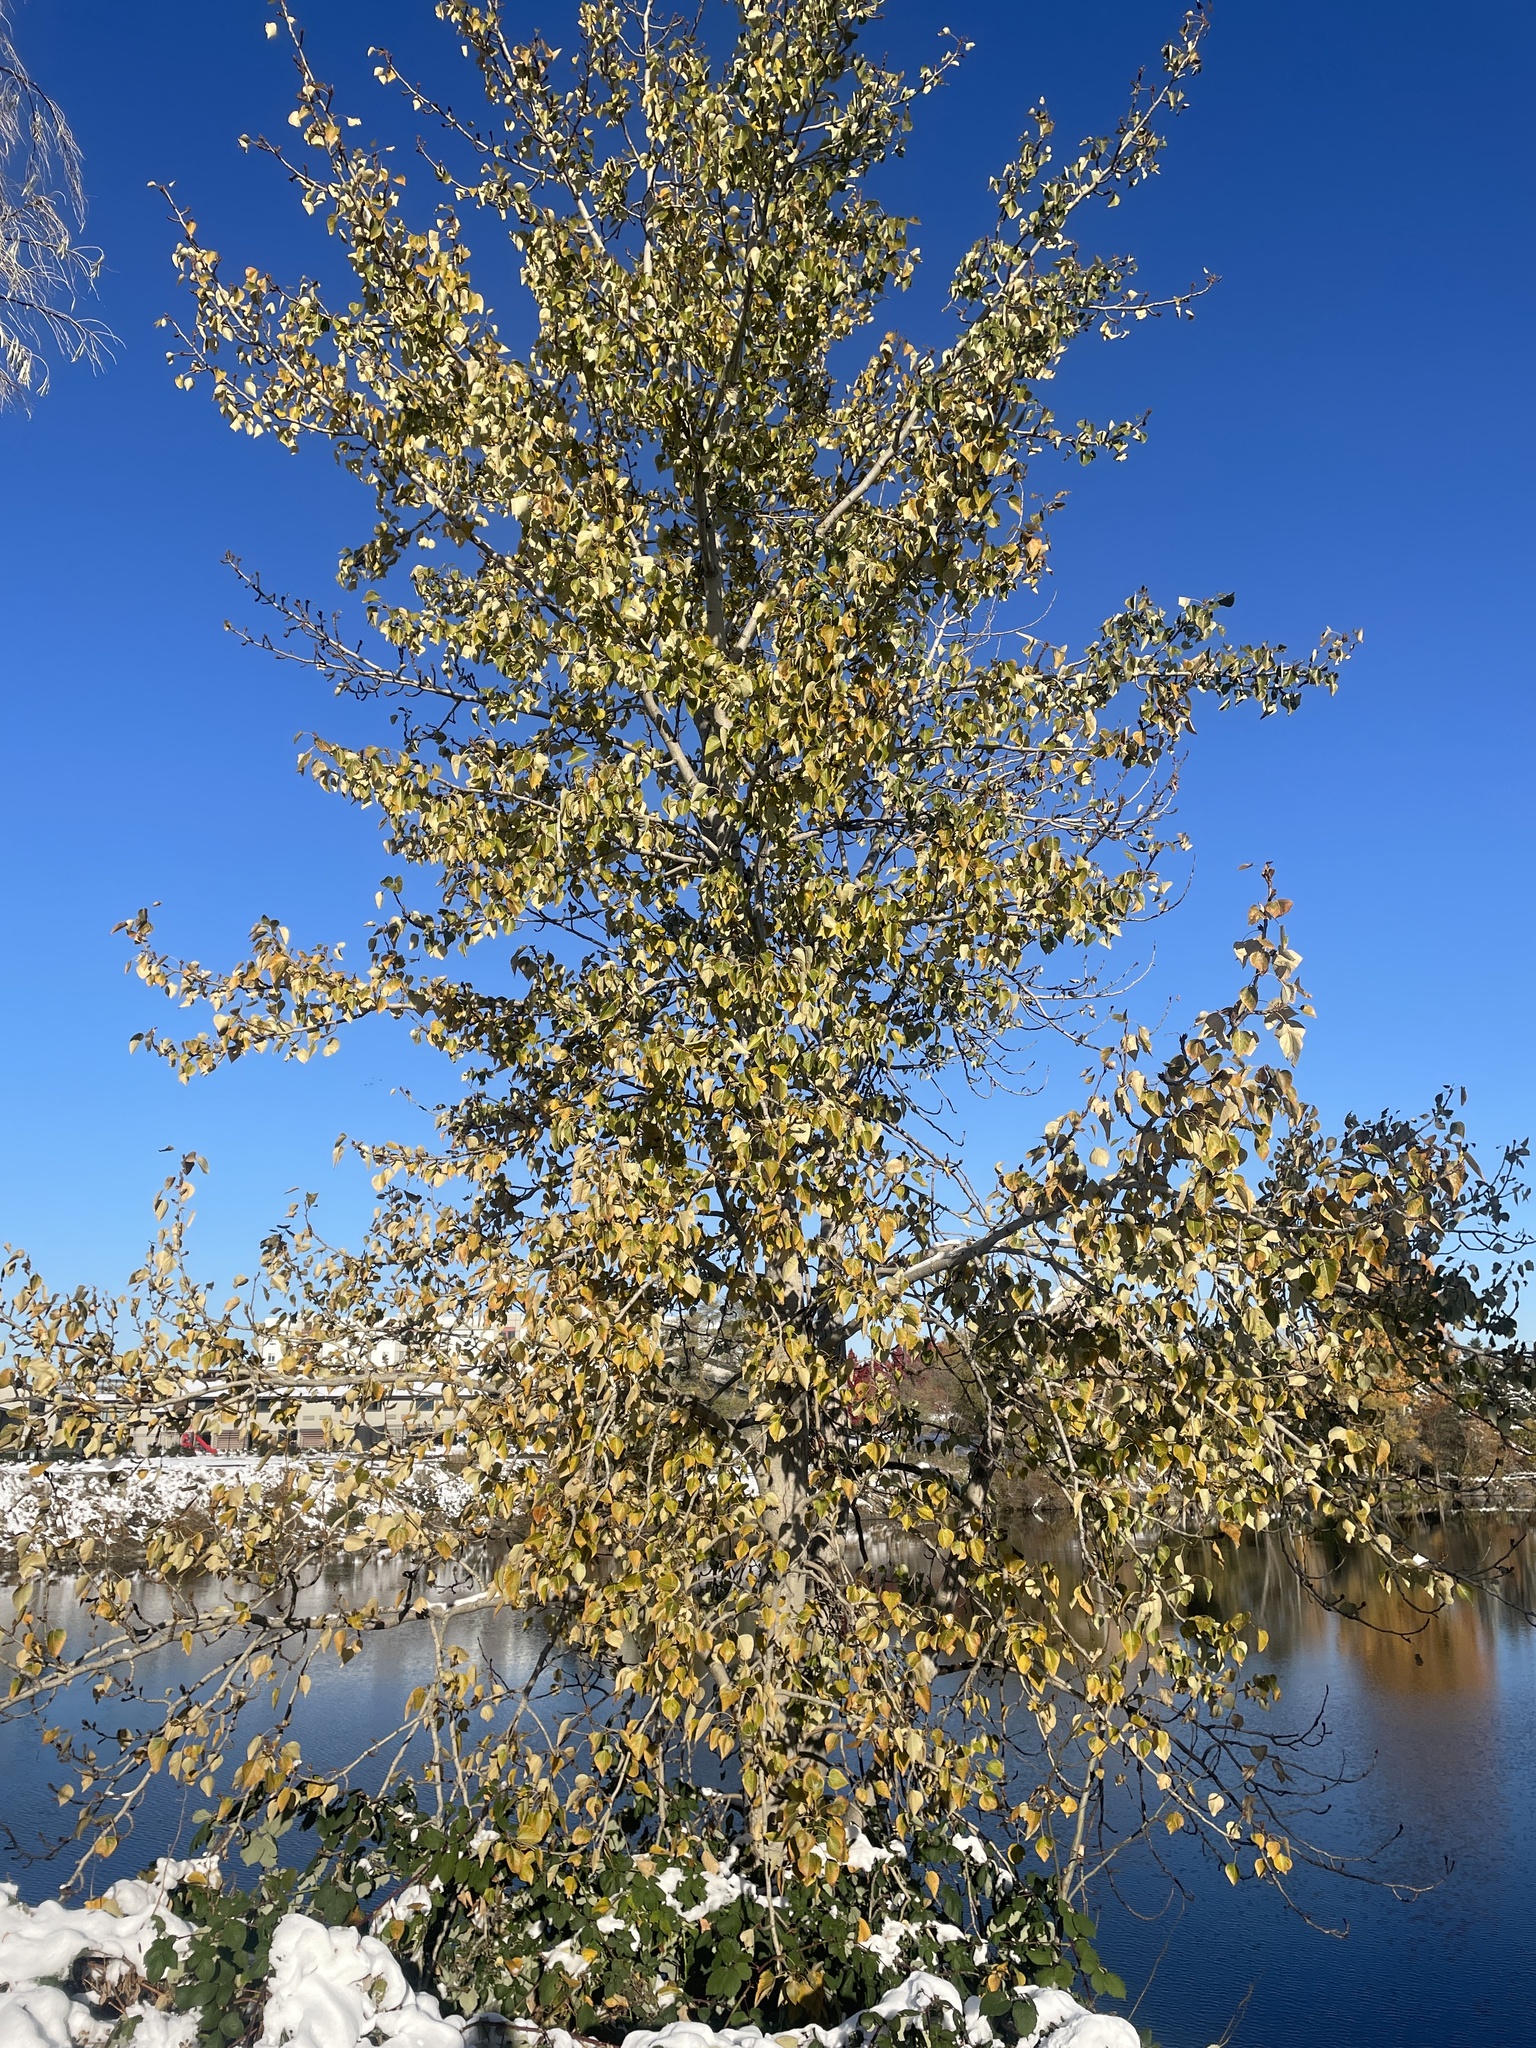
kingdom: Plantae
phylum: Tracheophyta
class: Magnoliopsida
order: Malpighiales
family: Salicaceae
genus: Populus
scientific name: Populus trichocarpa
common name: Black cottonwood
